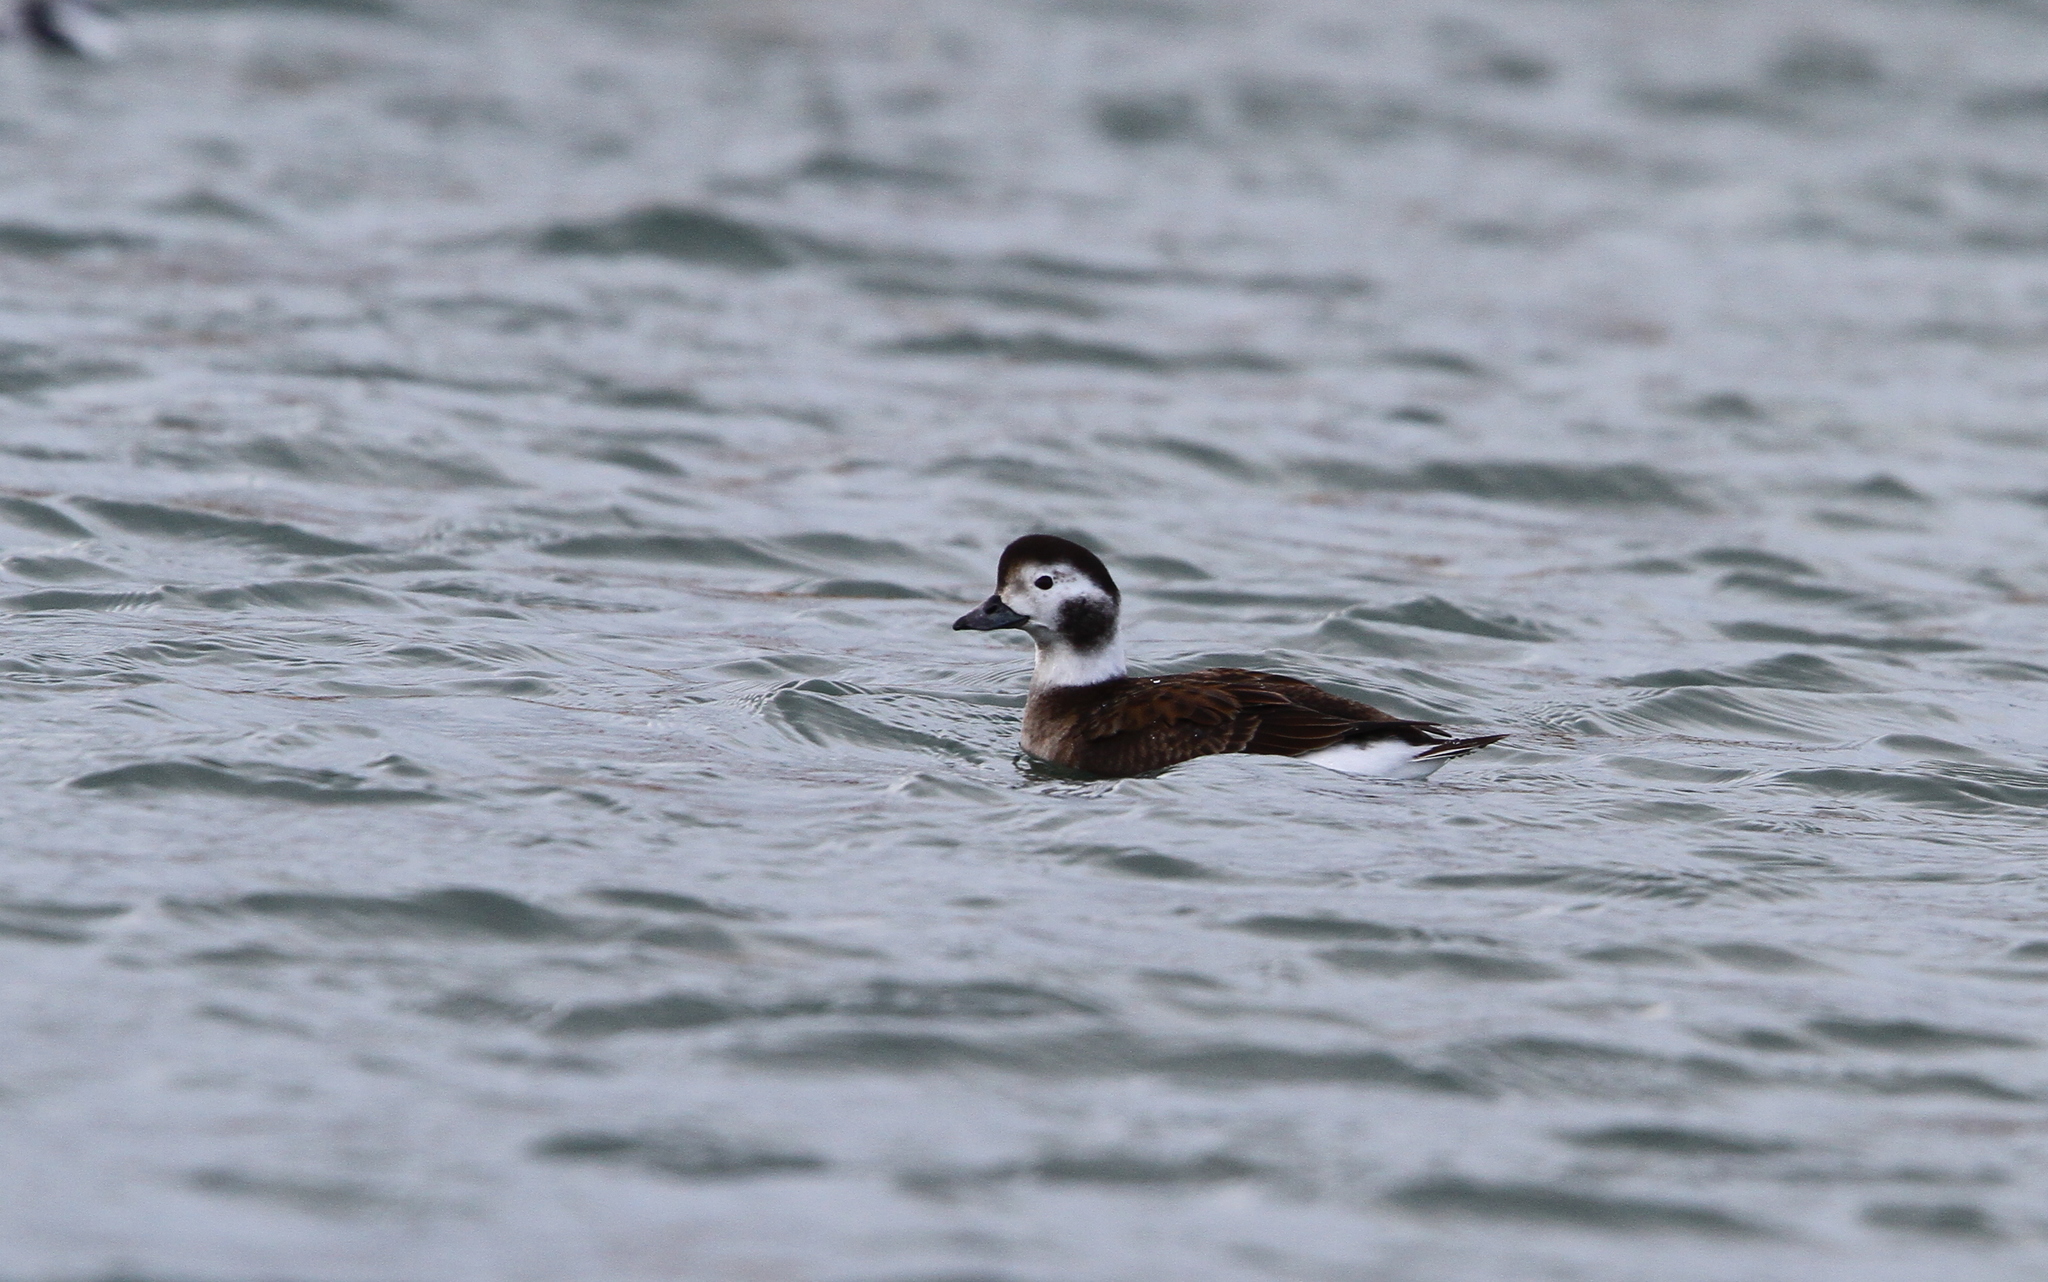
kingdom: Animalia
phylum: Chordata
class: Aves
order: Anseriformes
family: Anatidae
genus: Clangula
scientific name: Clangula hyemalis
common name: Long-tailed duck
